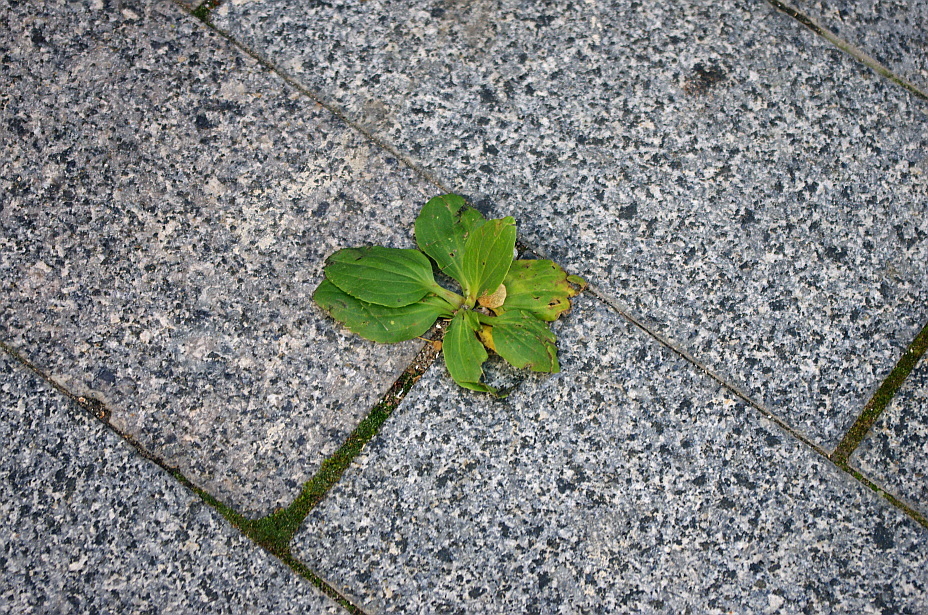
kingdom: Plantae
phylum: Tracheophyta
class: Magnoliopsida
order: Lamiales
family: Plantaginaceae
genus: Plantago
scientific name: Plantago major
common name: Common plantain
